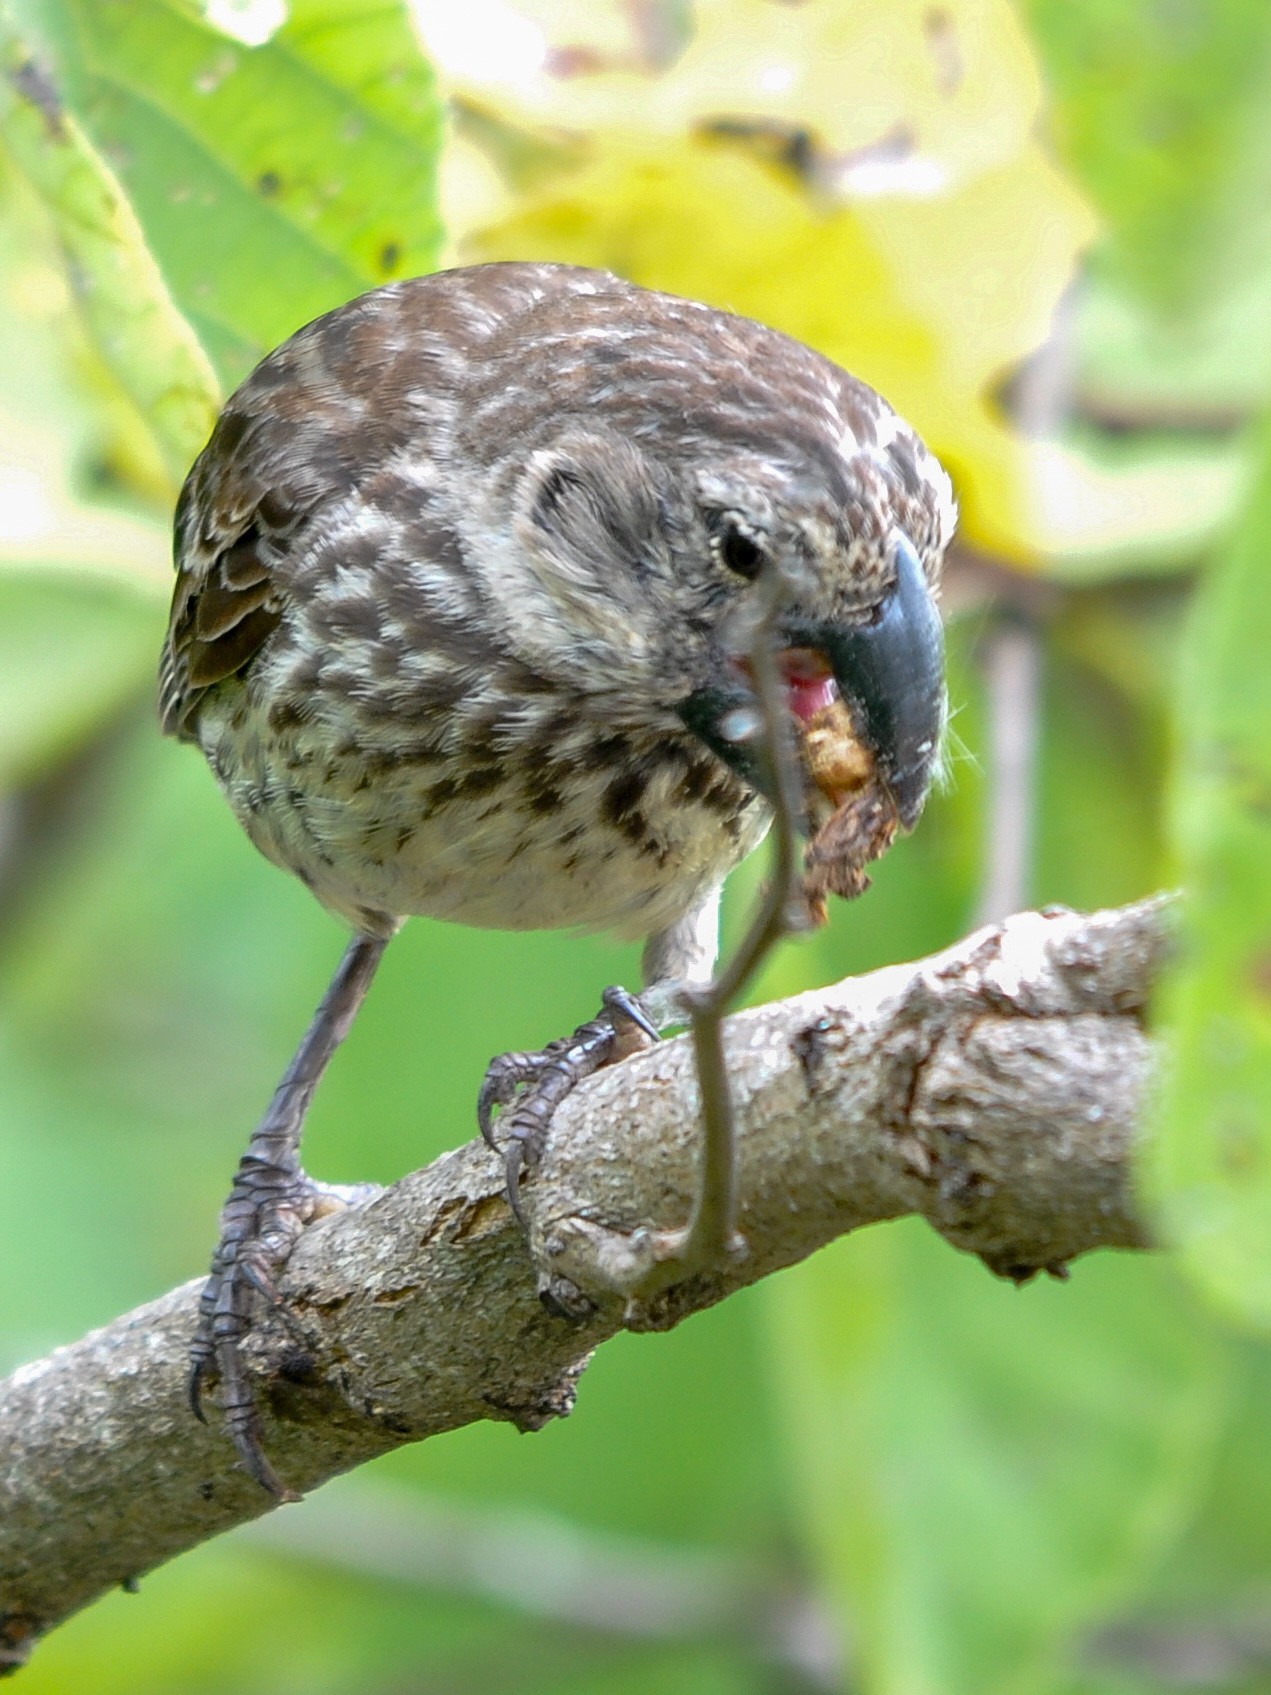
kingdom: Animalia
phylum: Chordata
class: Aves
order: Passeriformes
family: Thraupidae
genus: Camarhynchus
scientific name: Camarhynchus psittacula
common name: Large tree finch
